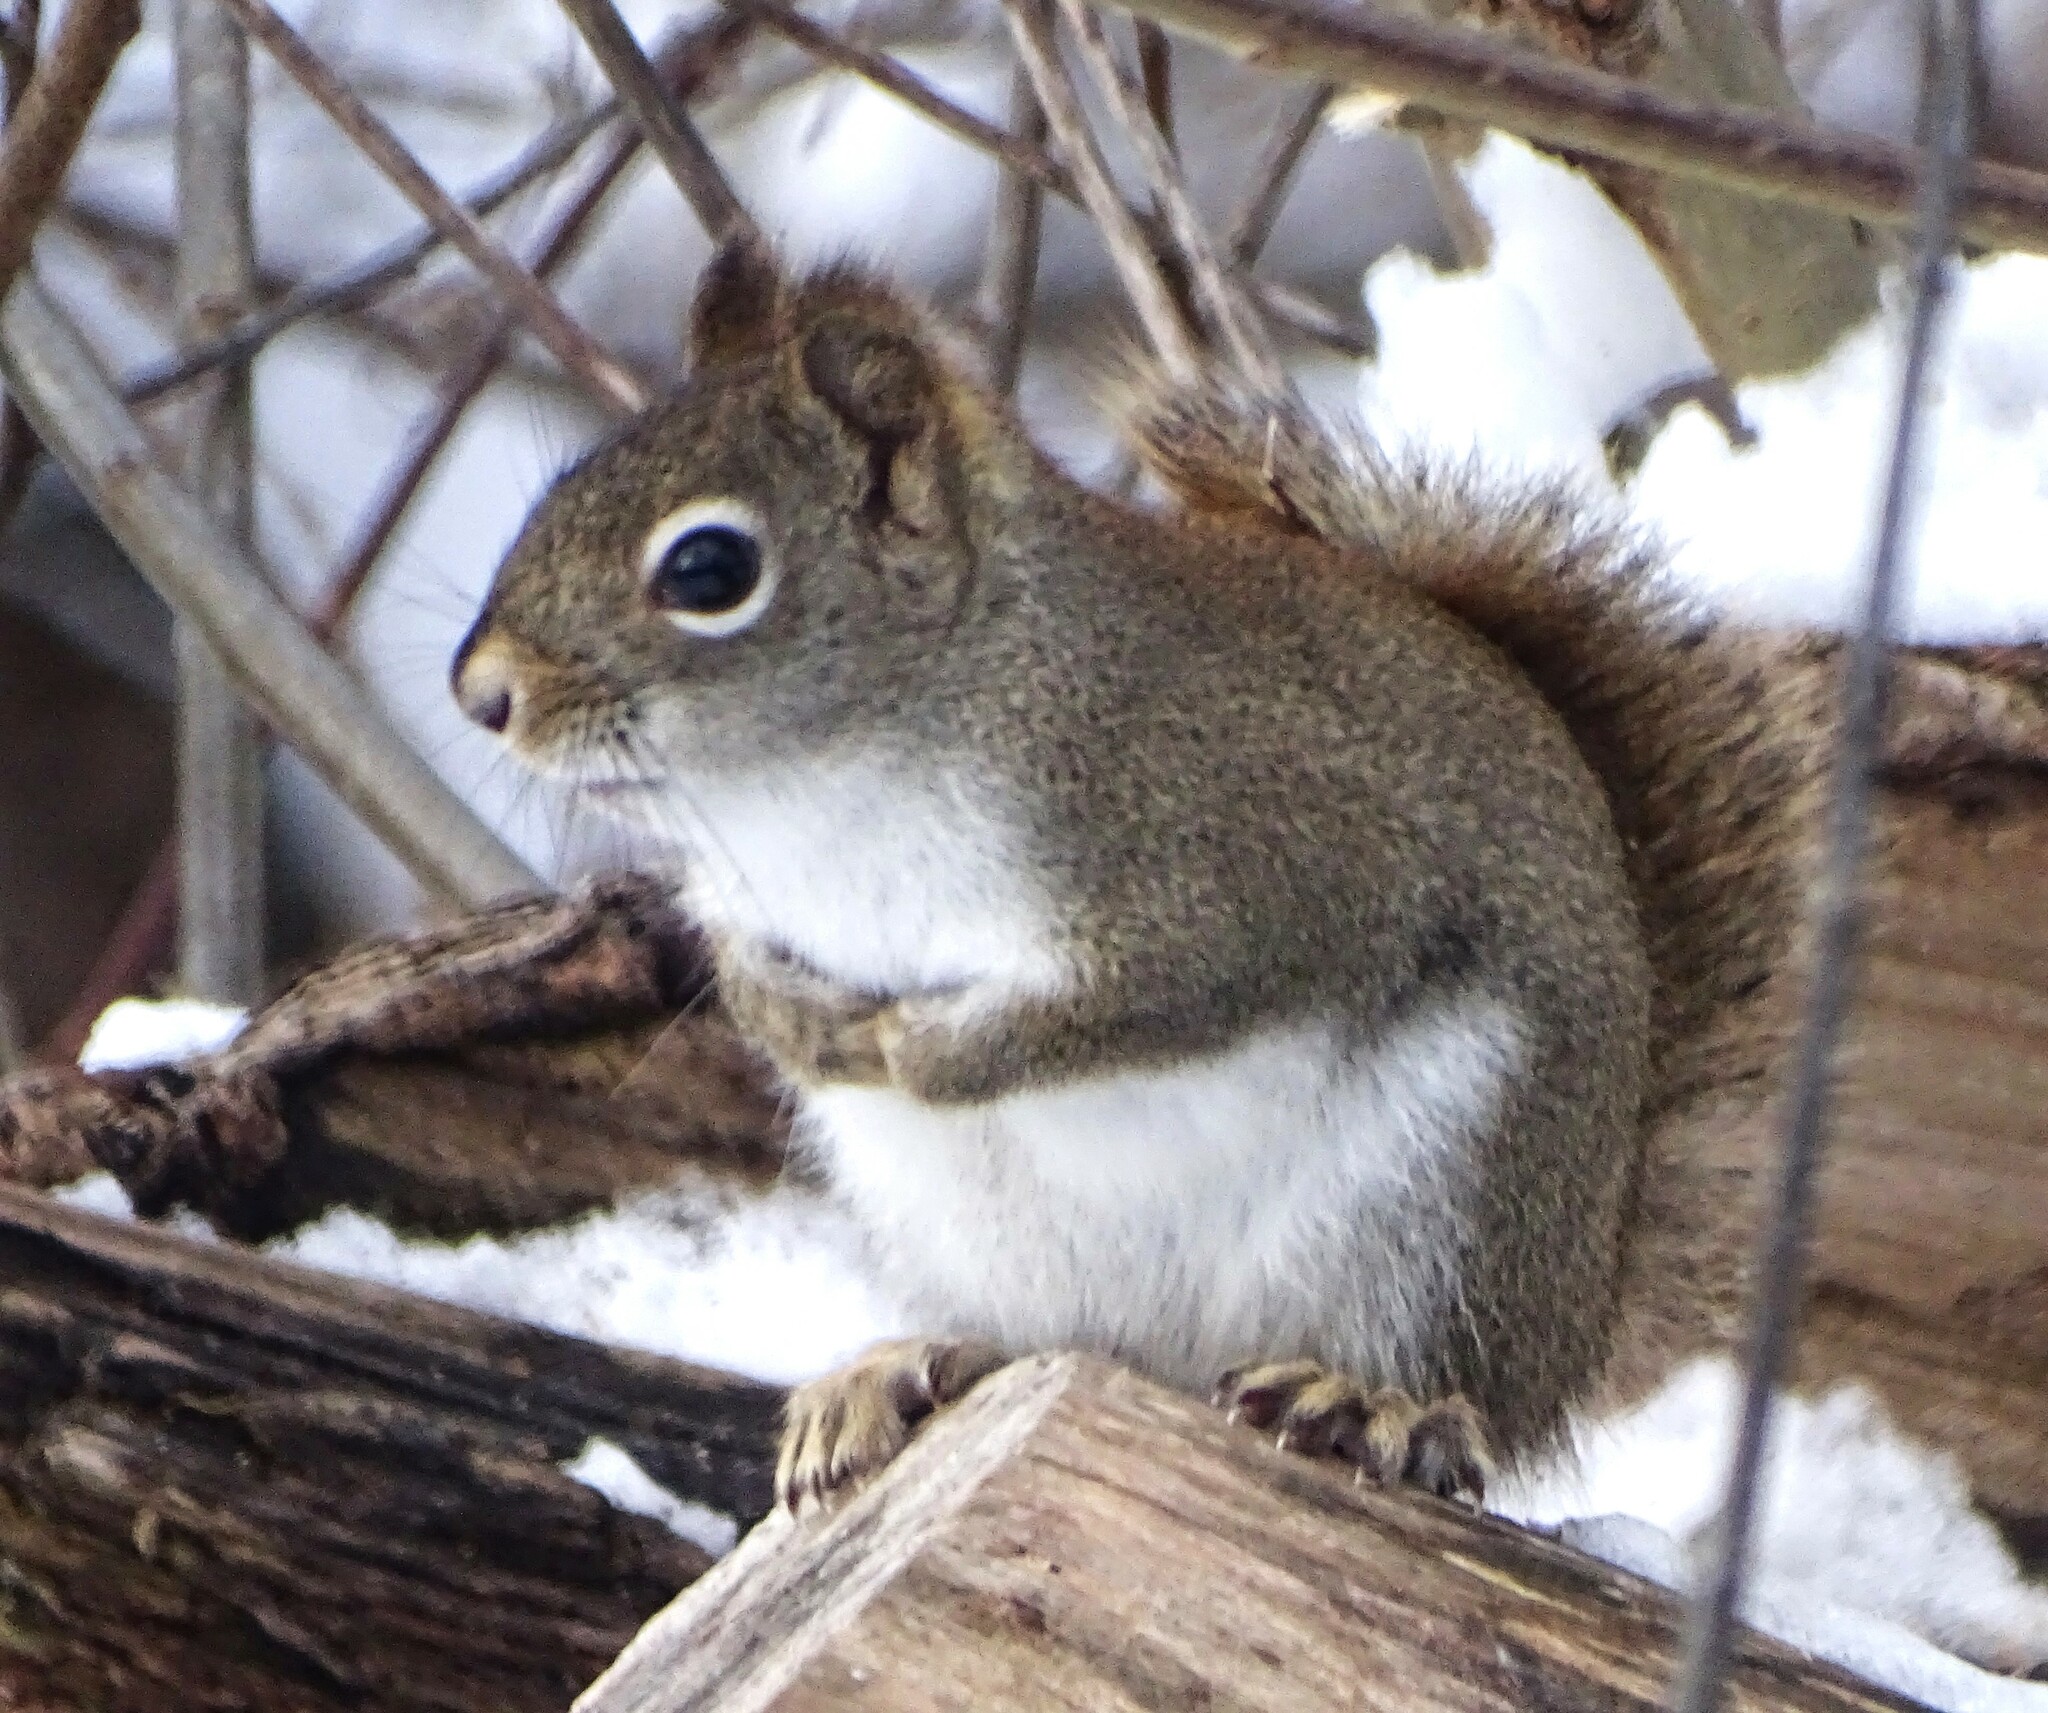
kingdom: Animalia
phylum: Chordata
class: Mammalia
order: Rodentia
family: Sciuridae
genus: Tamiasciurus
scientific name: Tamiasciurus hudsonicus
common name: Red squirrel
